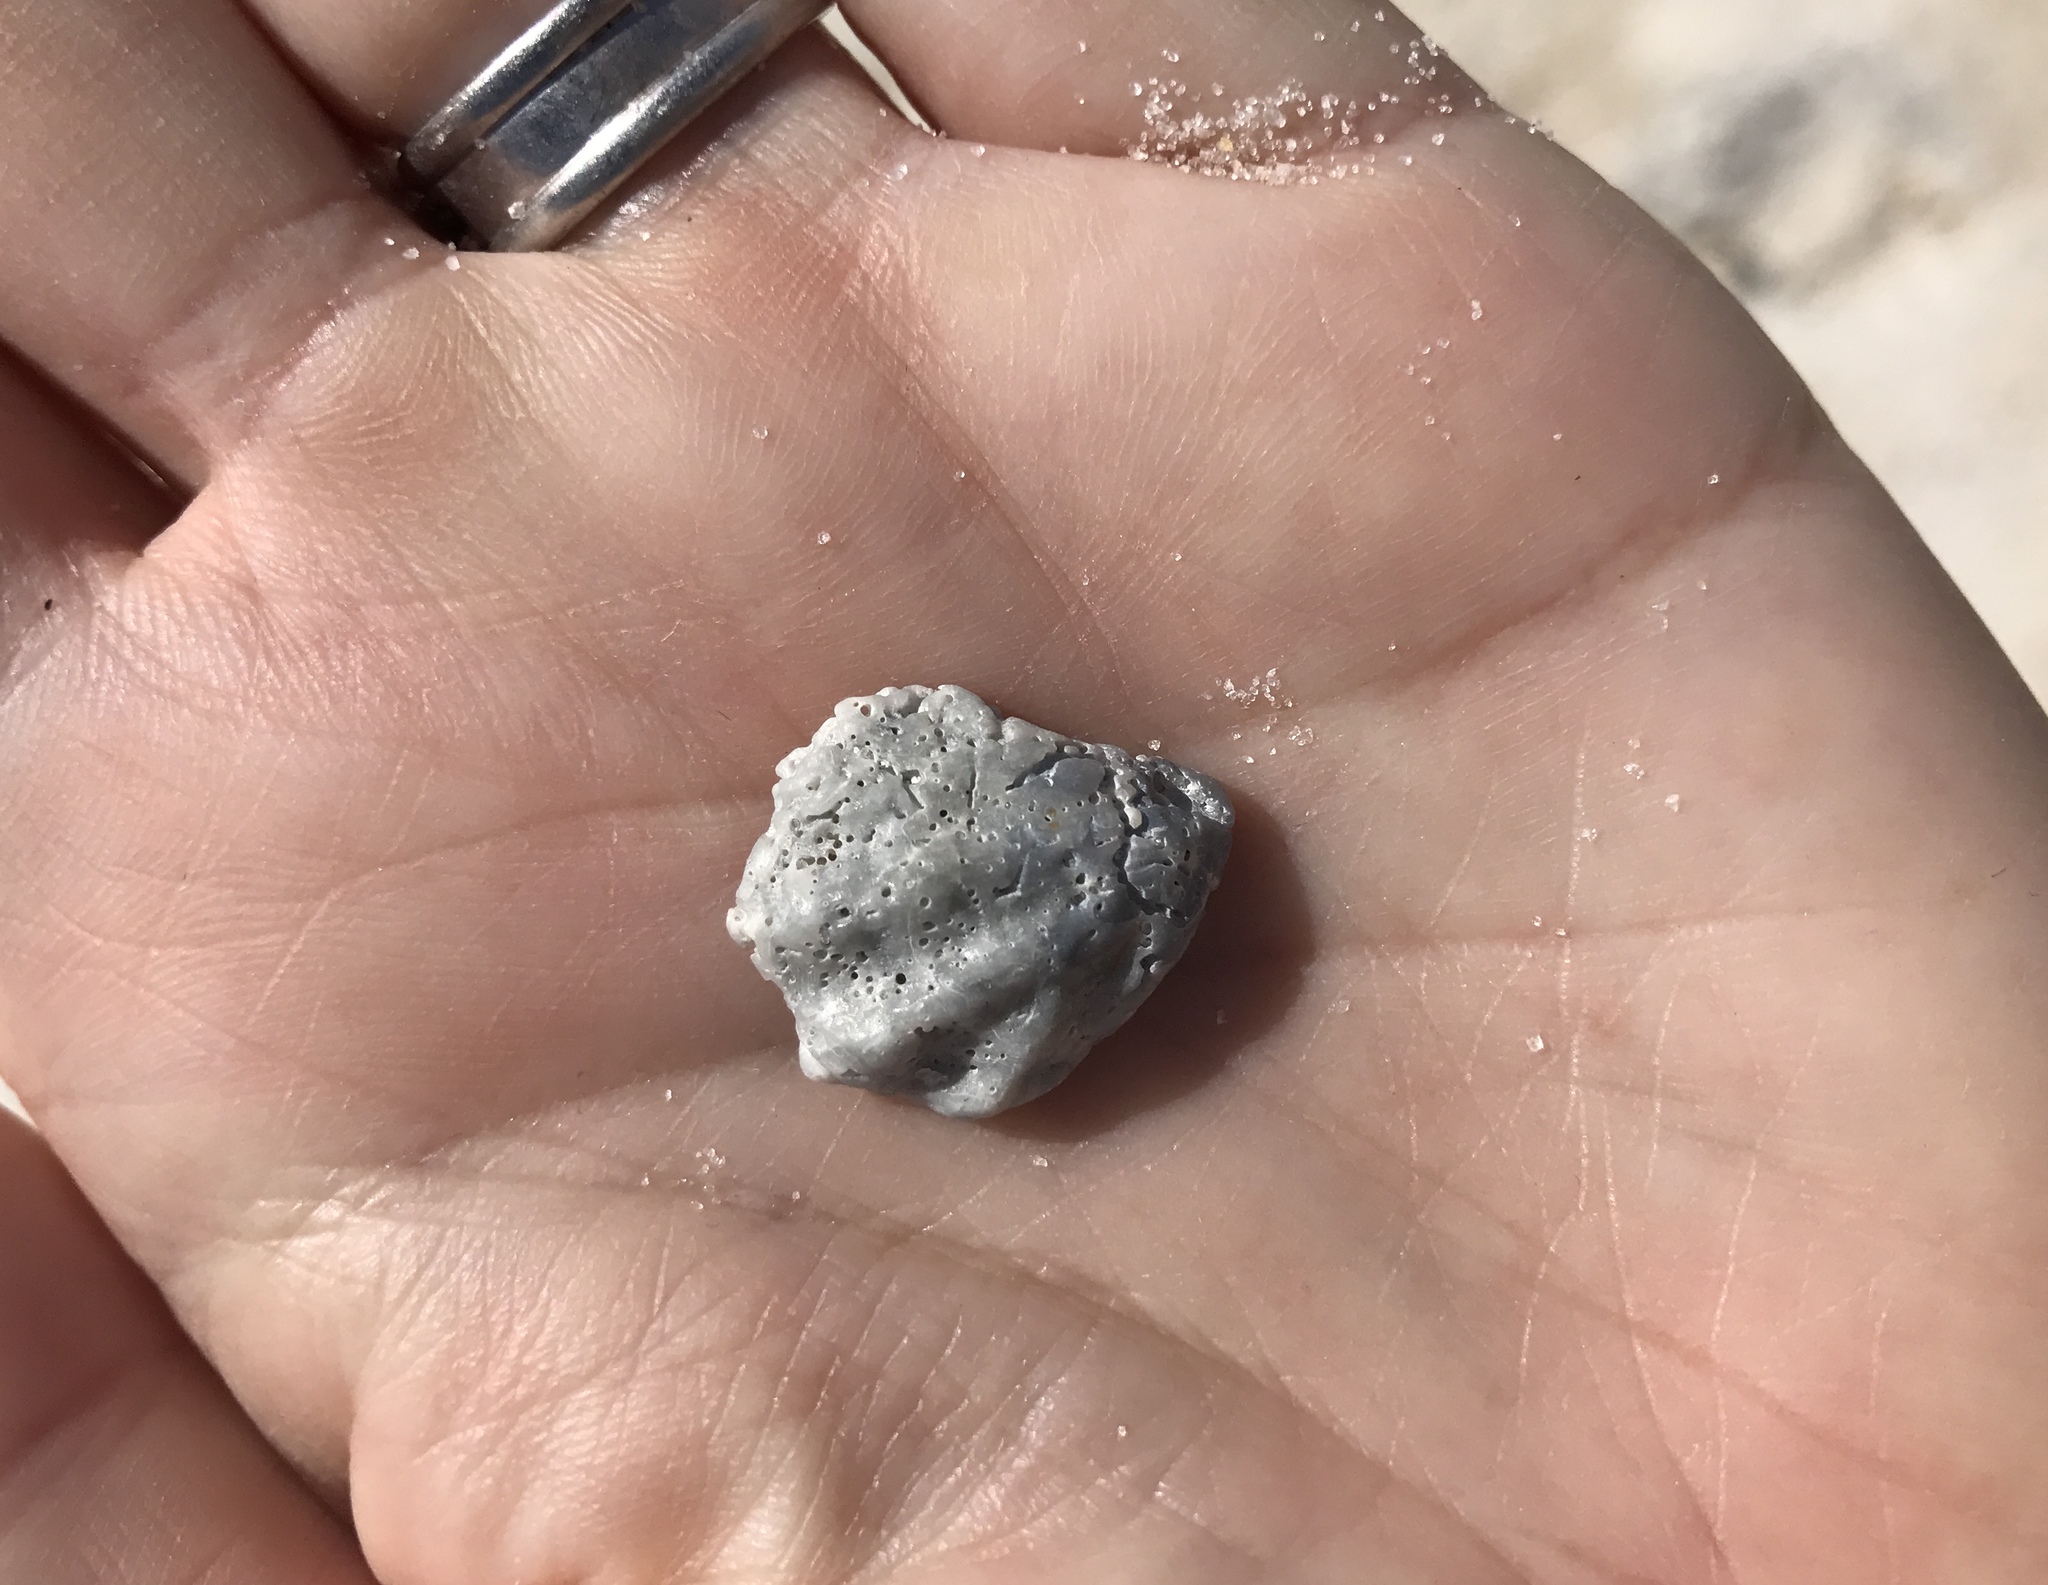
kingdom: Animalia
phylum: Mollusca
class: Bivalvia
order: Pectinida
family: Plicatulidae
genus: Plicatula
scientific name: Plicatula gibbosa
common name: Atlantic kitten's paw
